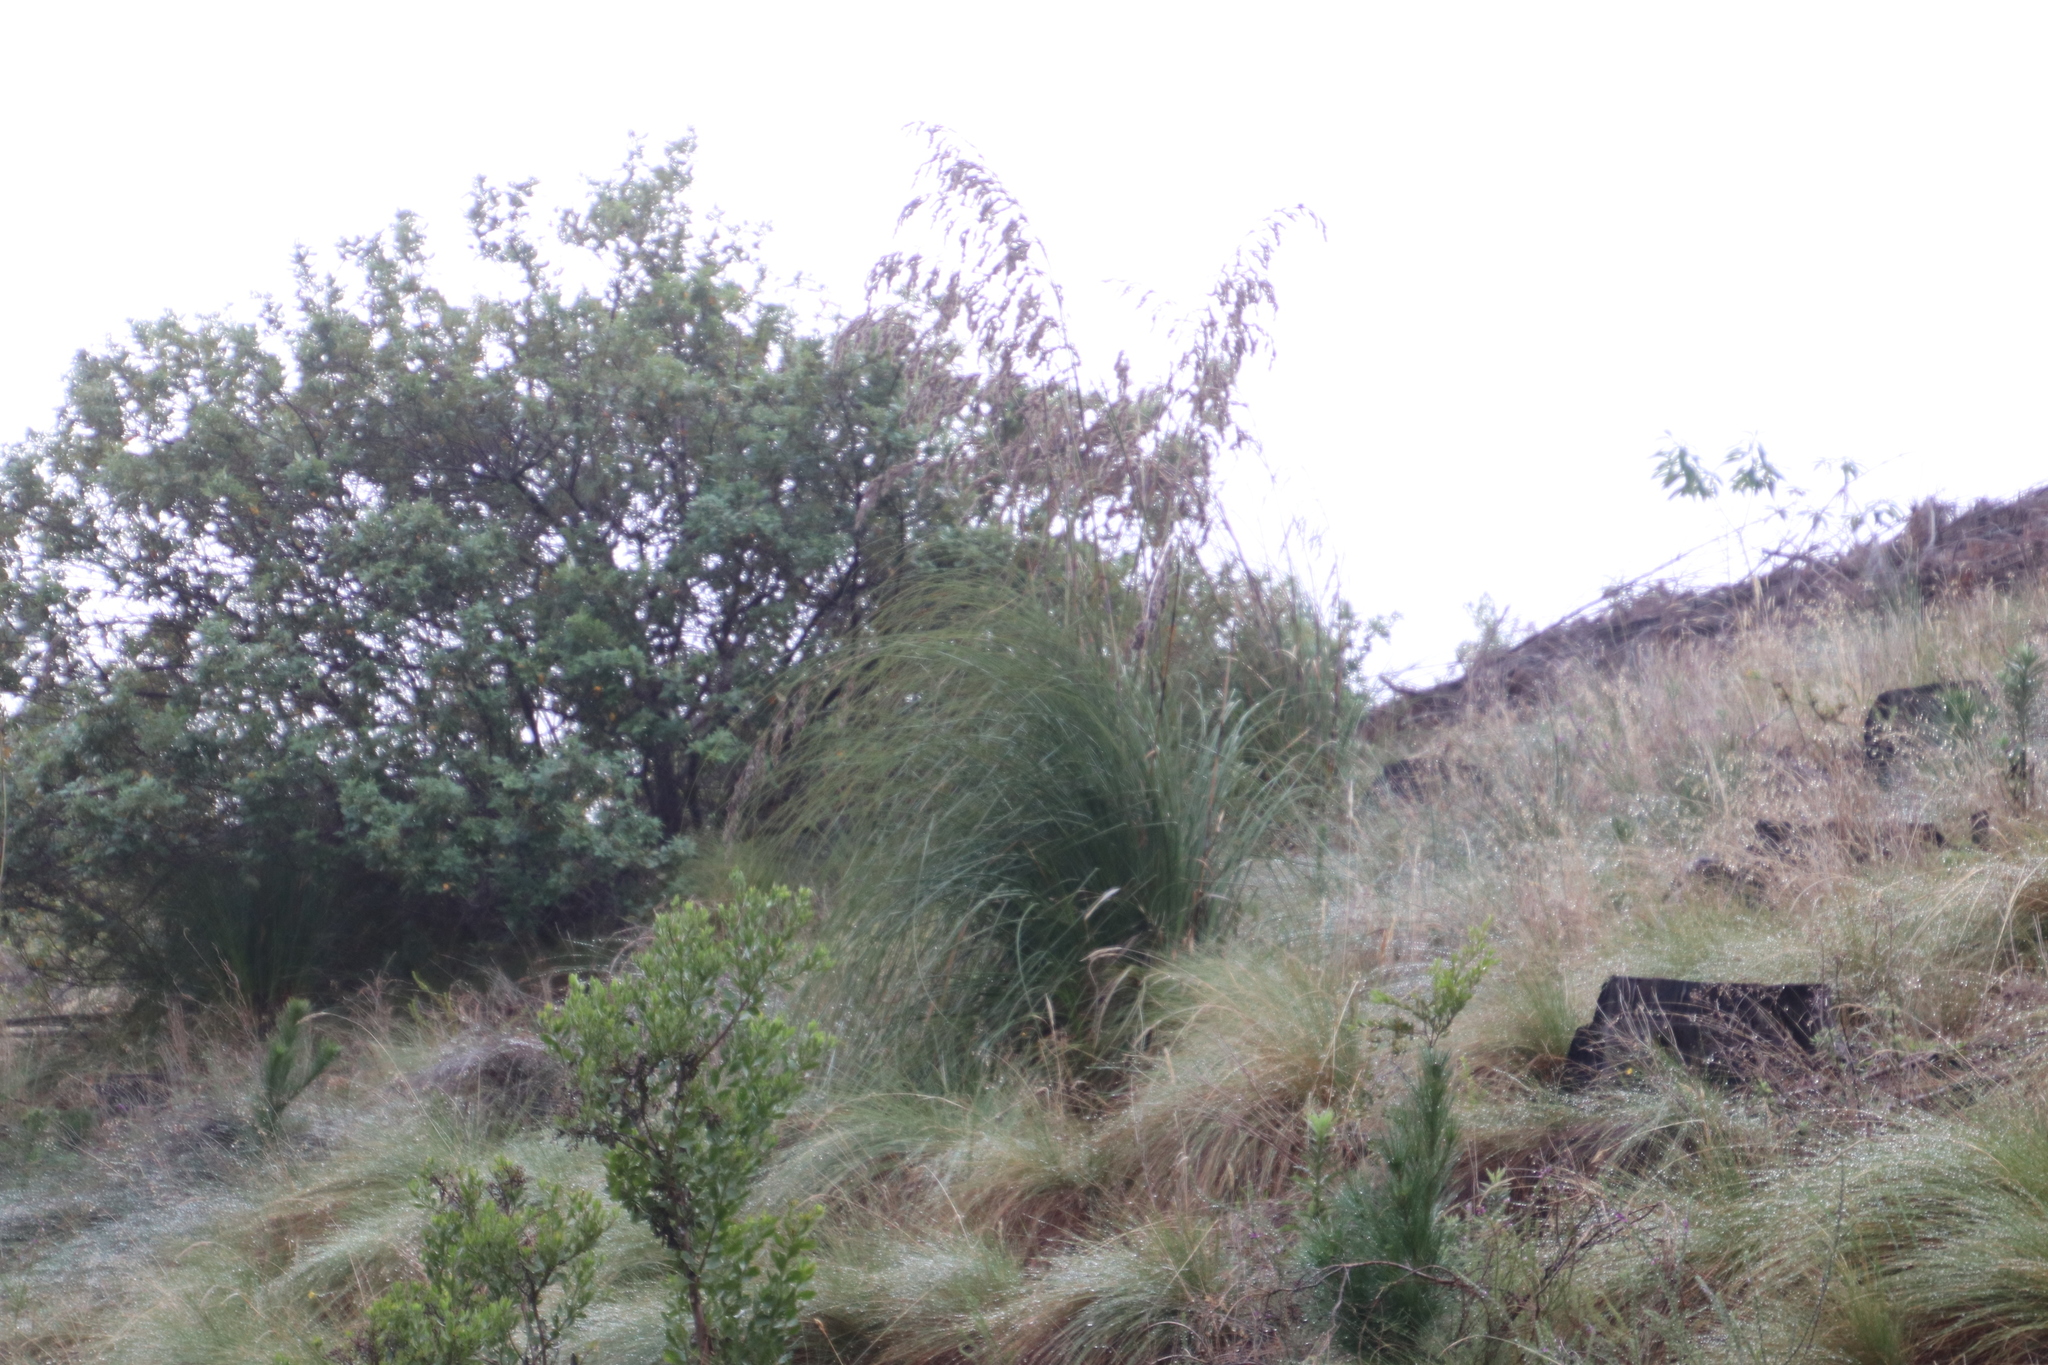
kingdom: Plantae
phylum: Tracheophyta
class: Liliopsida
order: Poales
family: Cyperaceae
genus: Tetraria
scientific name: Tetraria bromoides
